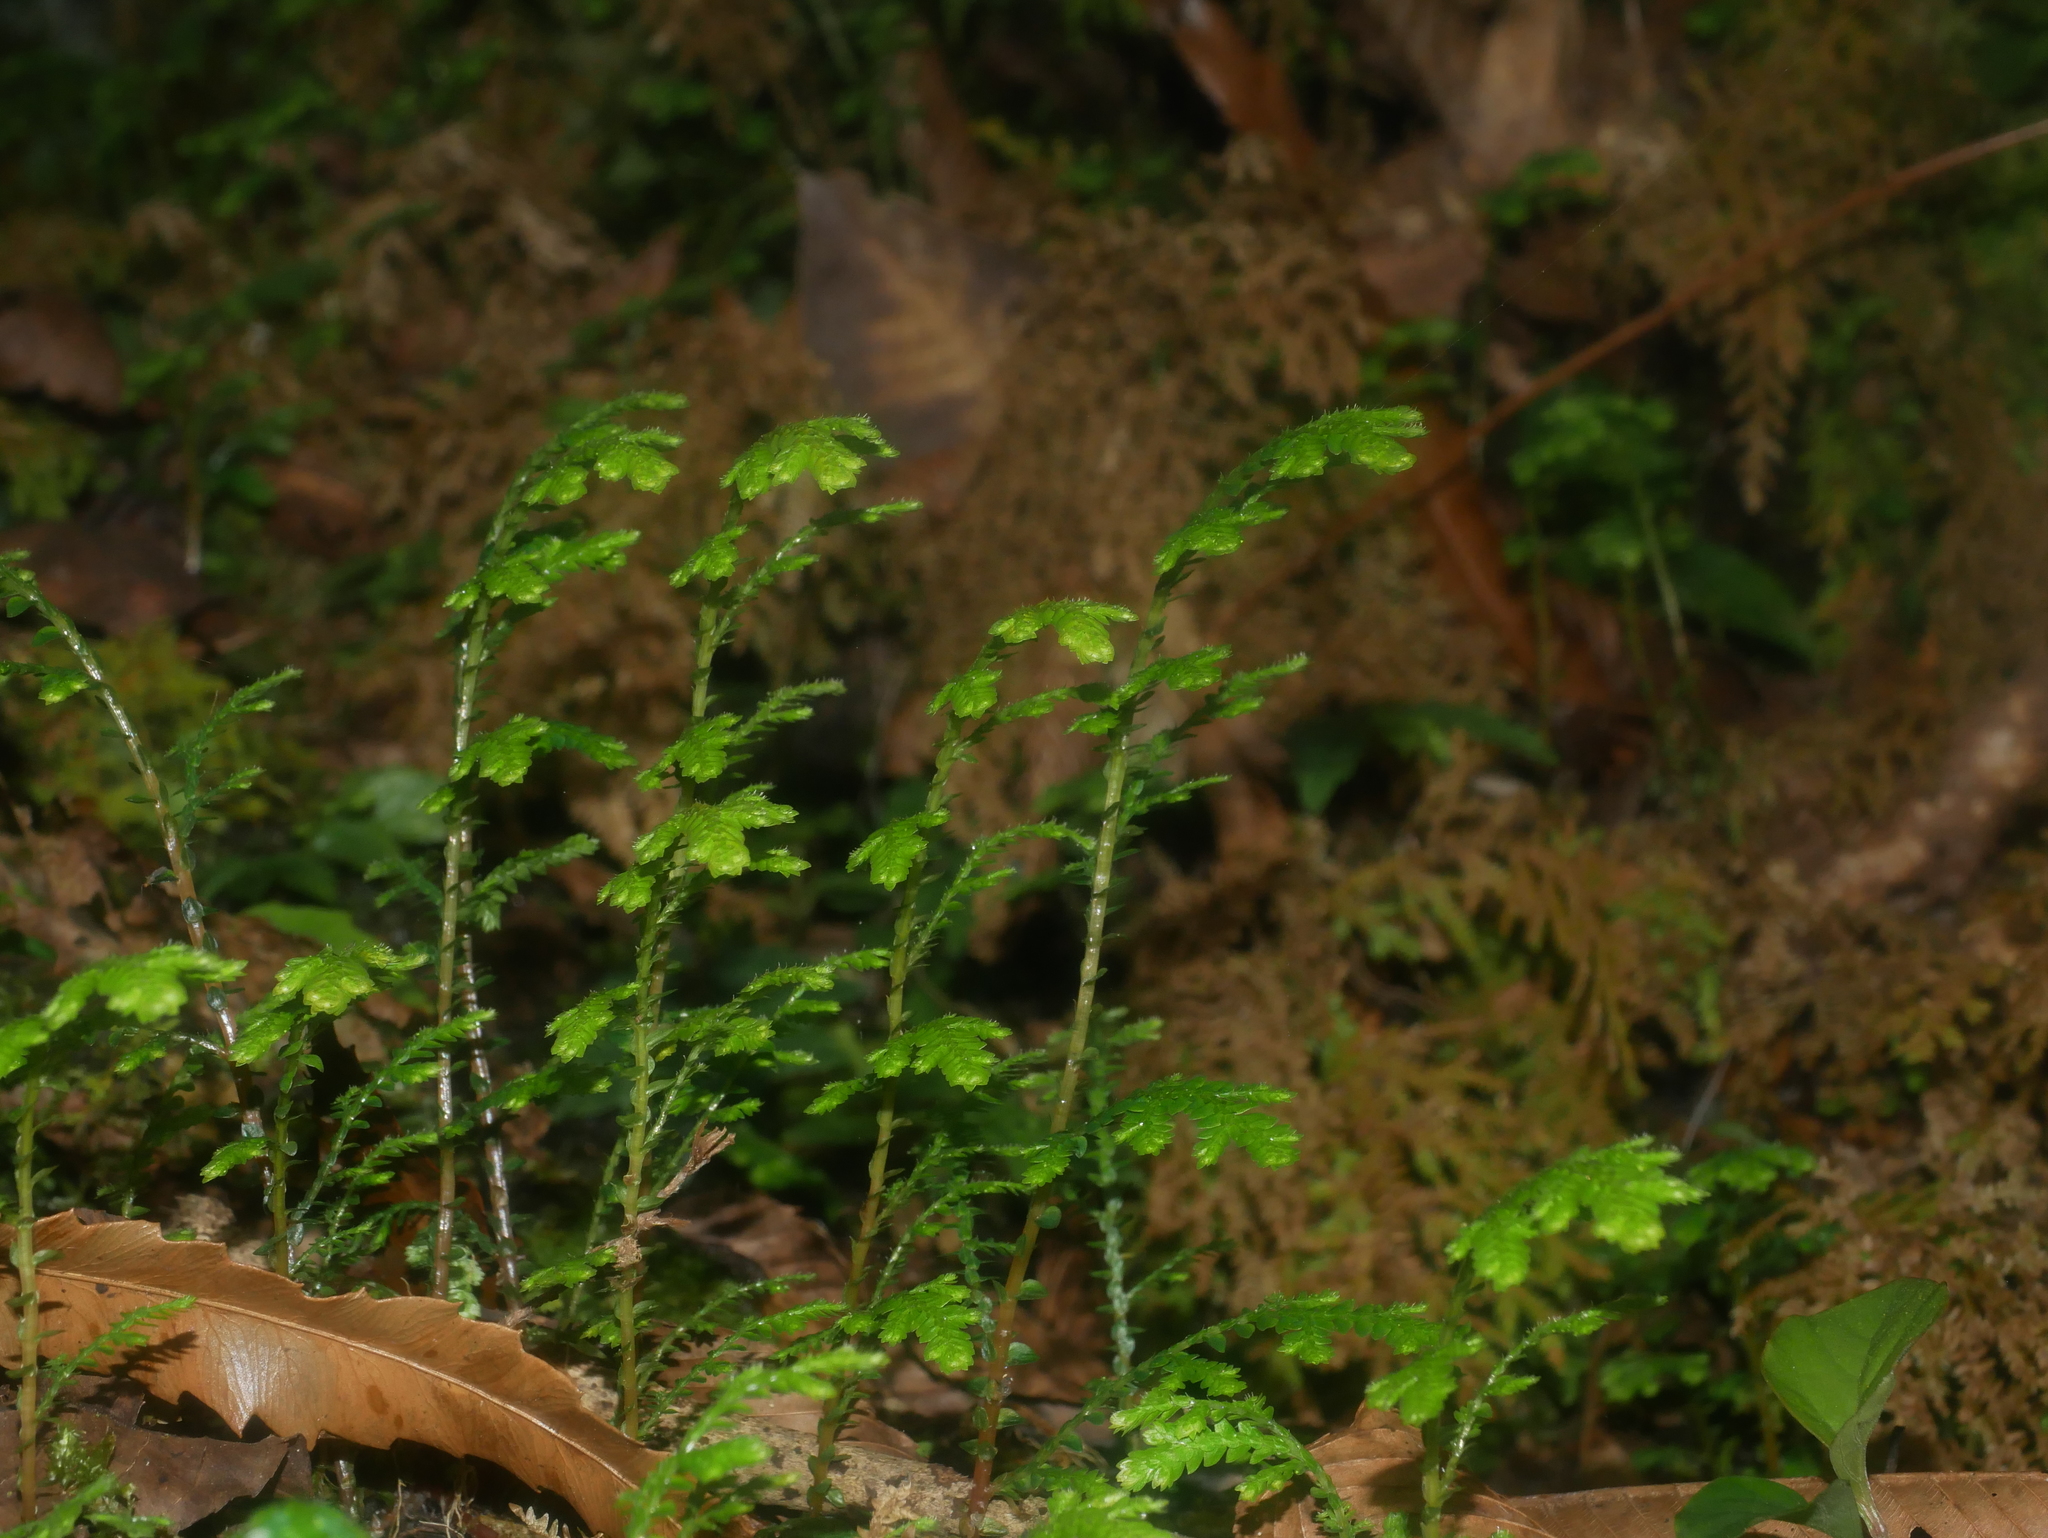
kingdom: Plantae
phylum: Tracheophyta
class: Lycopodiopsida
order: Selaginellales
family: Selaginellaceae
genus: Selaginella
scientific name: Selaginella labordei
